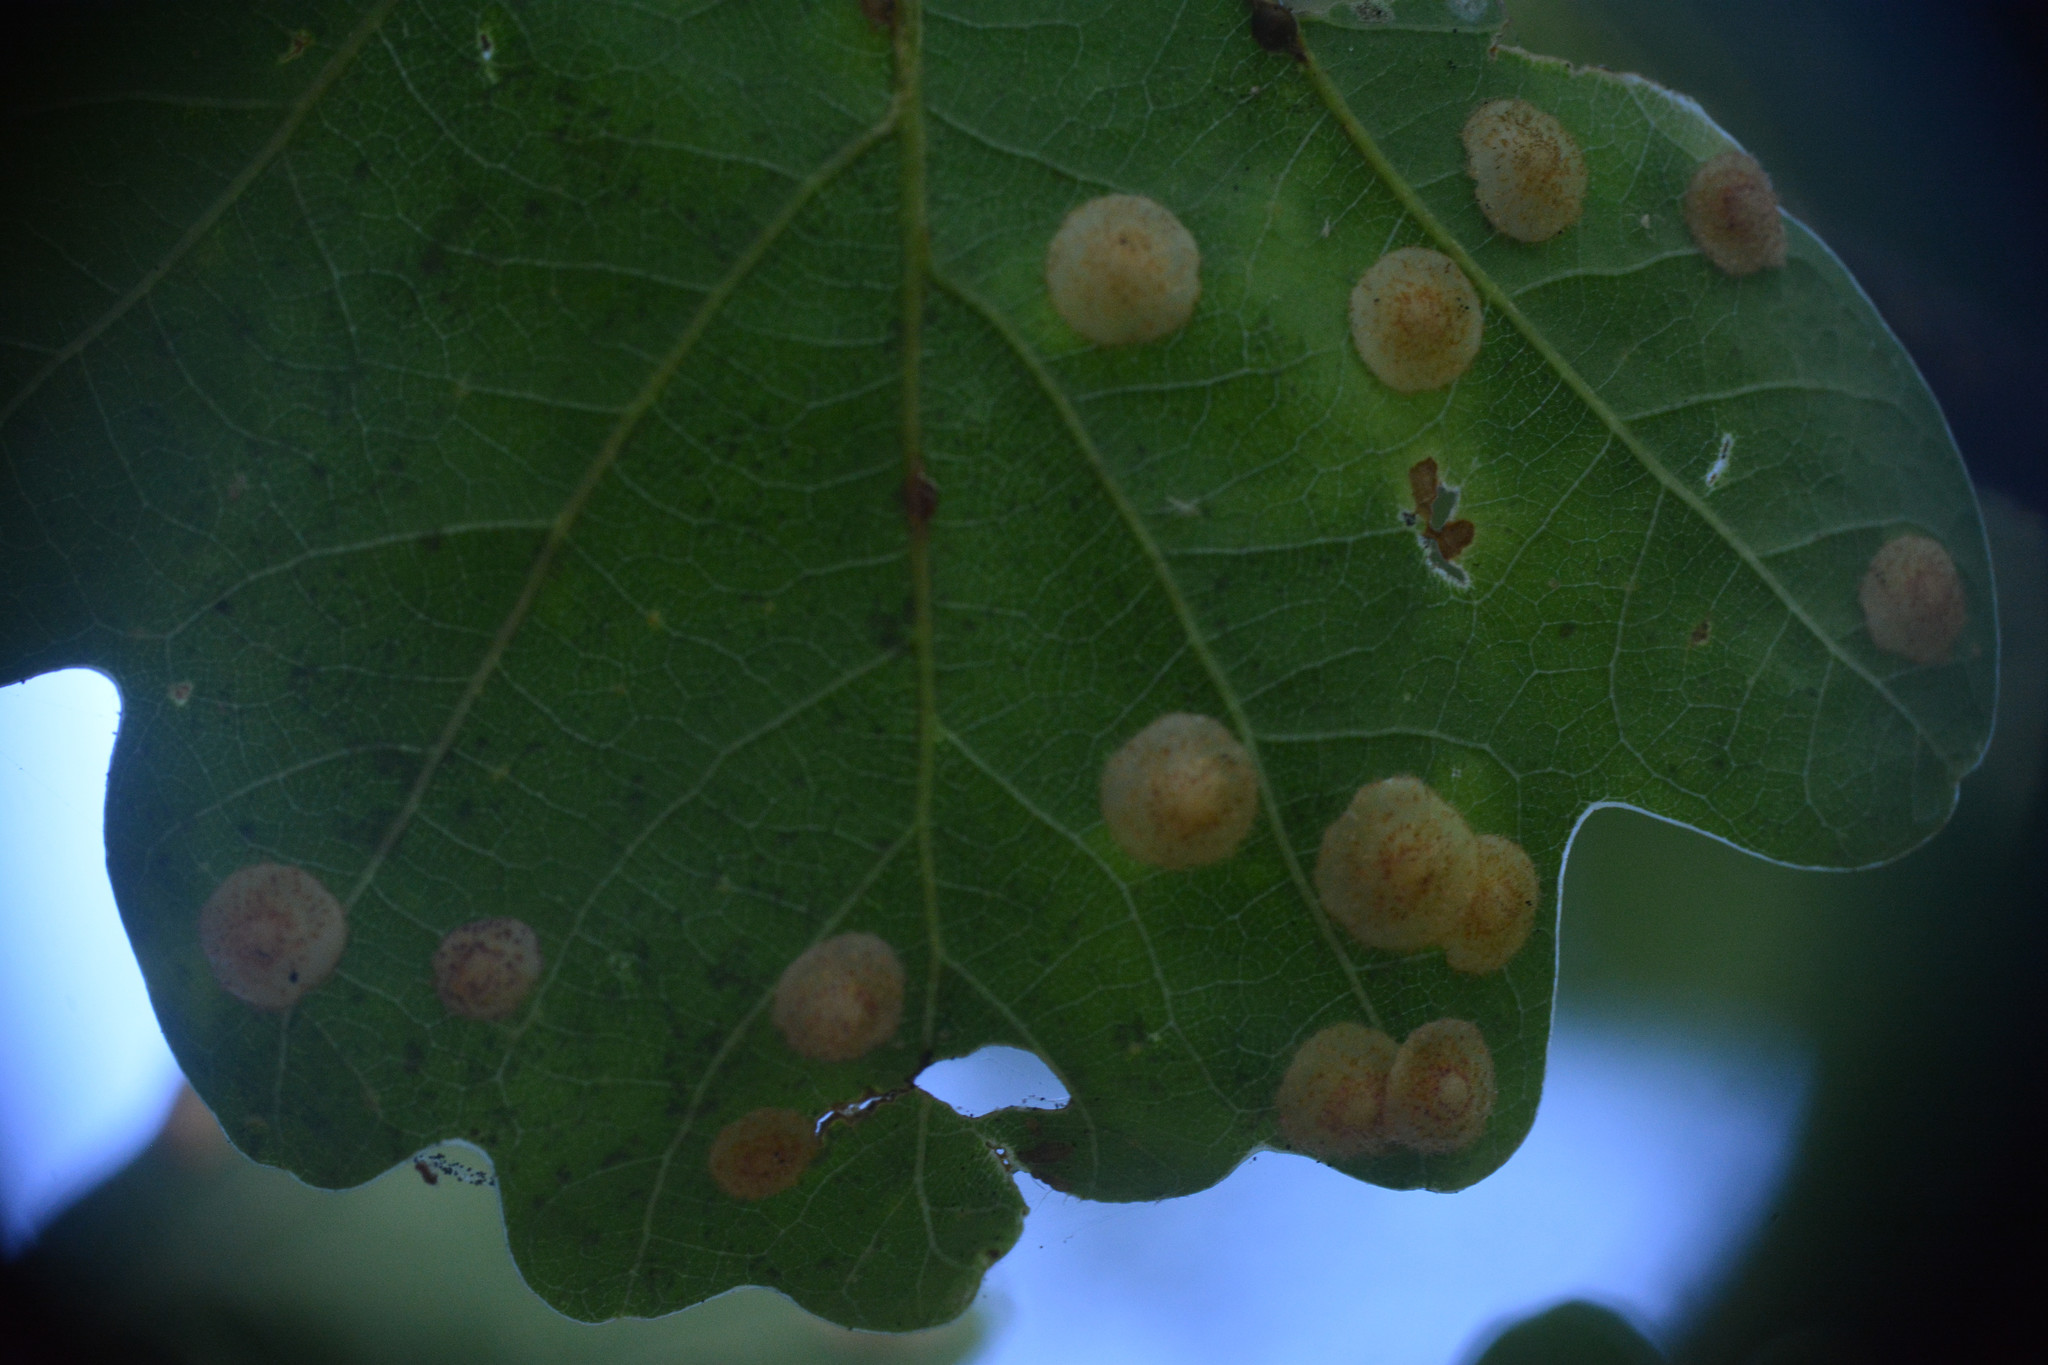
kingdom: Animalia
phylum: Arthropoda
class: Insecta
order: Hymenoptera
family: Cynipidae
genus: Neuroterus
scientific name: Neuroterus quercusbaccarum
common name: Common spangle gall
